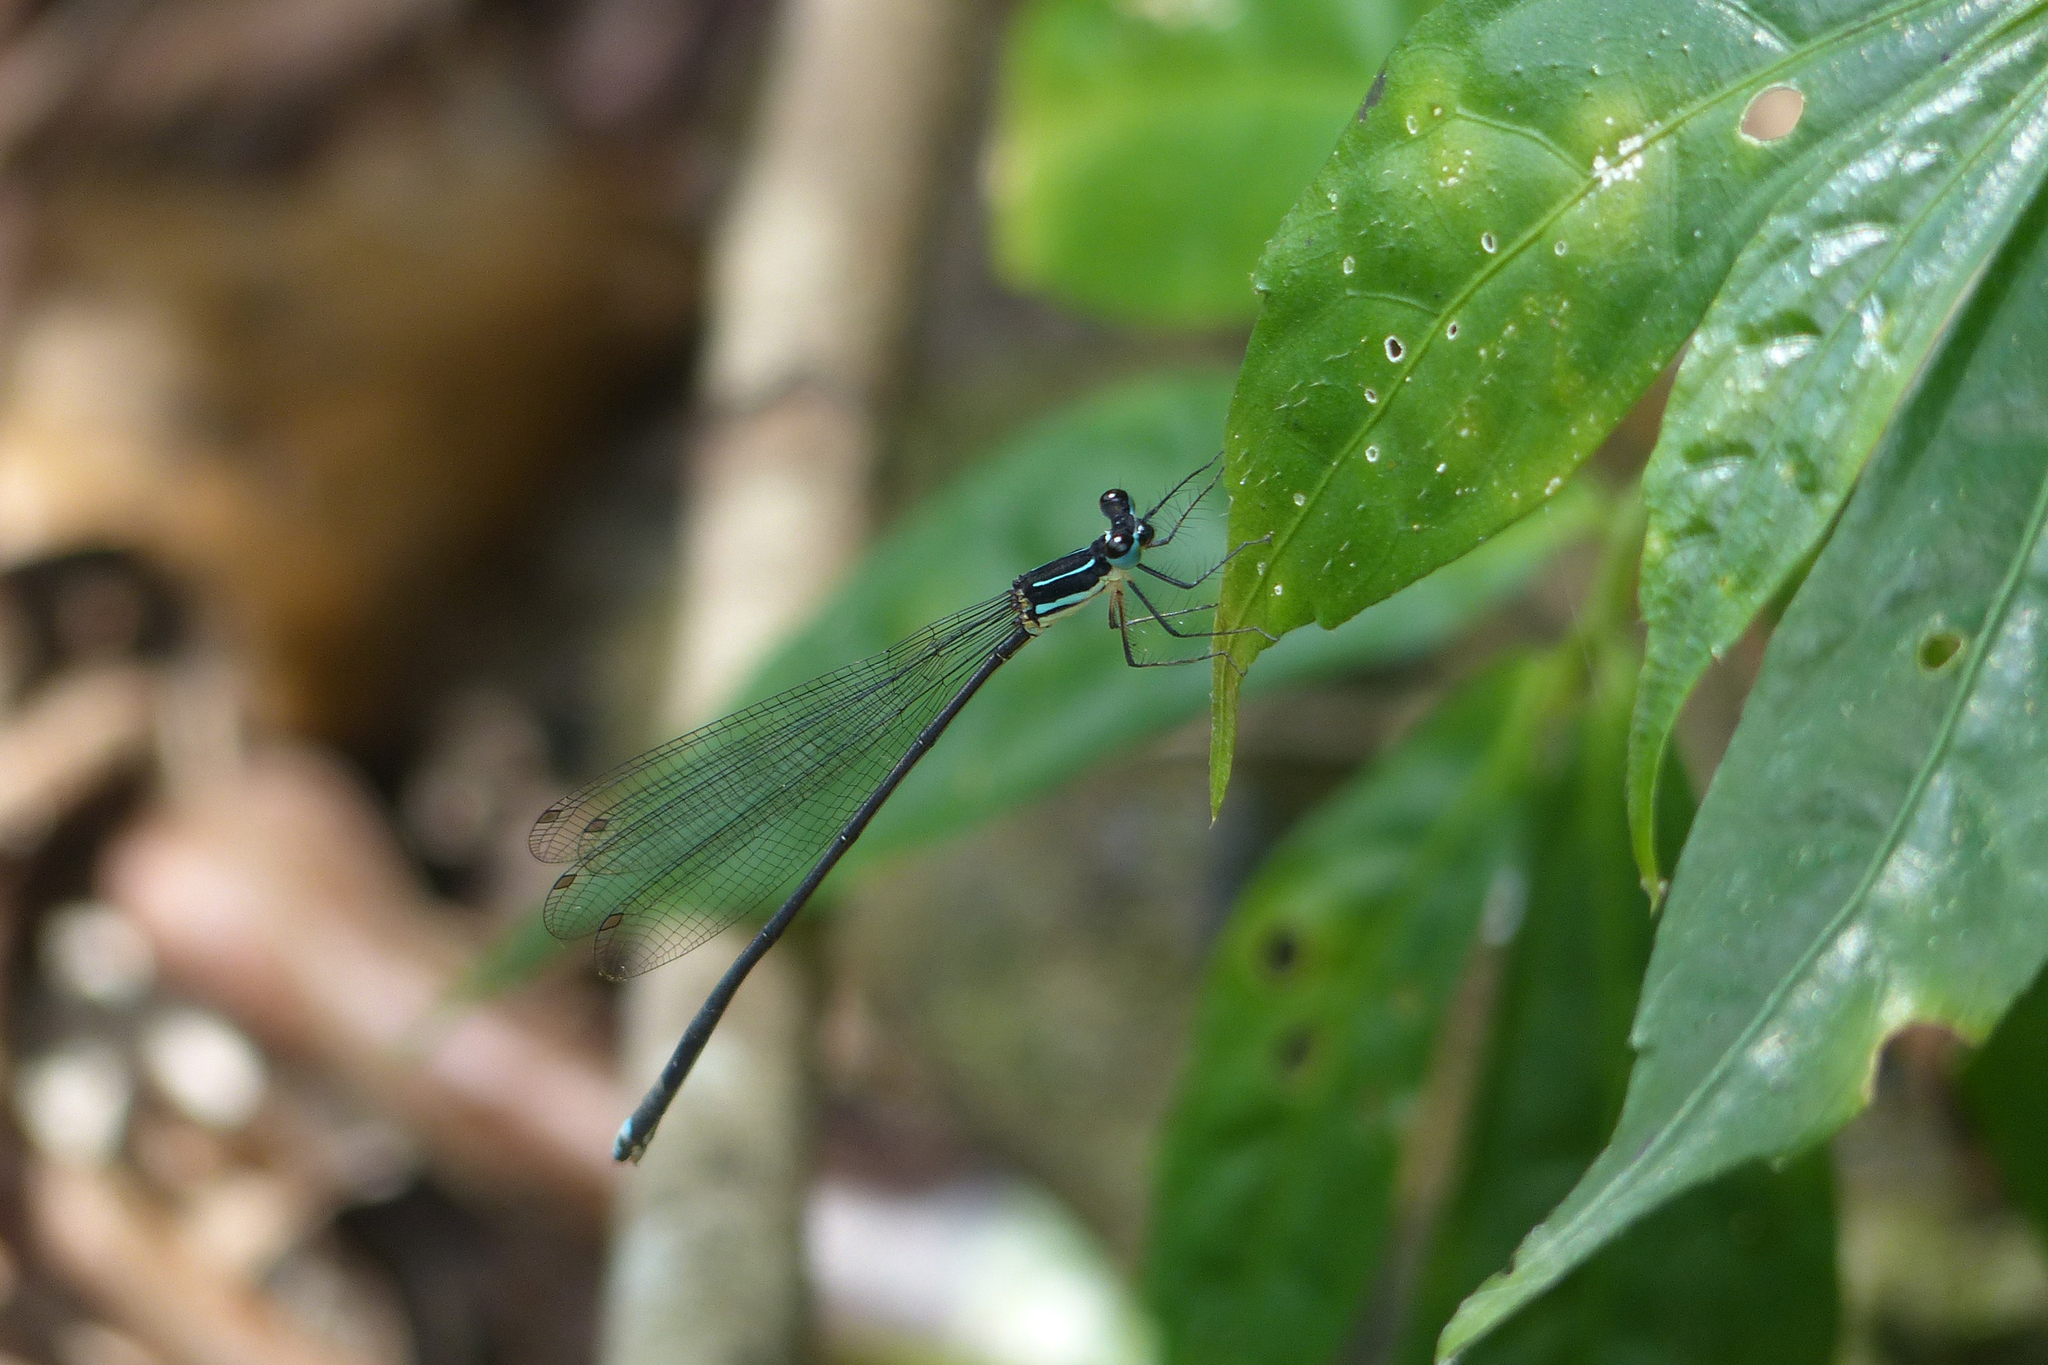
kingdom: Animalia
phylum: Arthropoda
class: Insecta
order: Odonata
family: Platycnemididae
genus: Caconeura
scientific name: Caconeura ramburi
